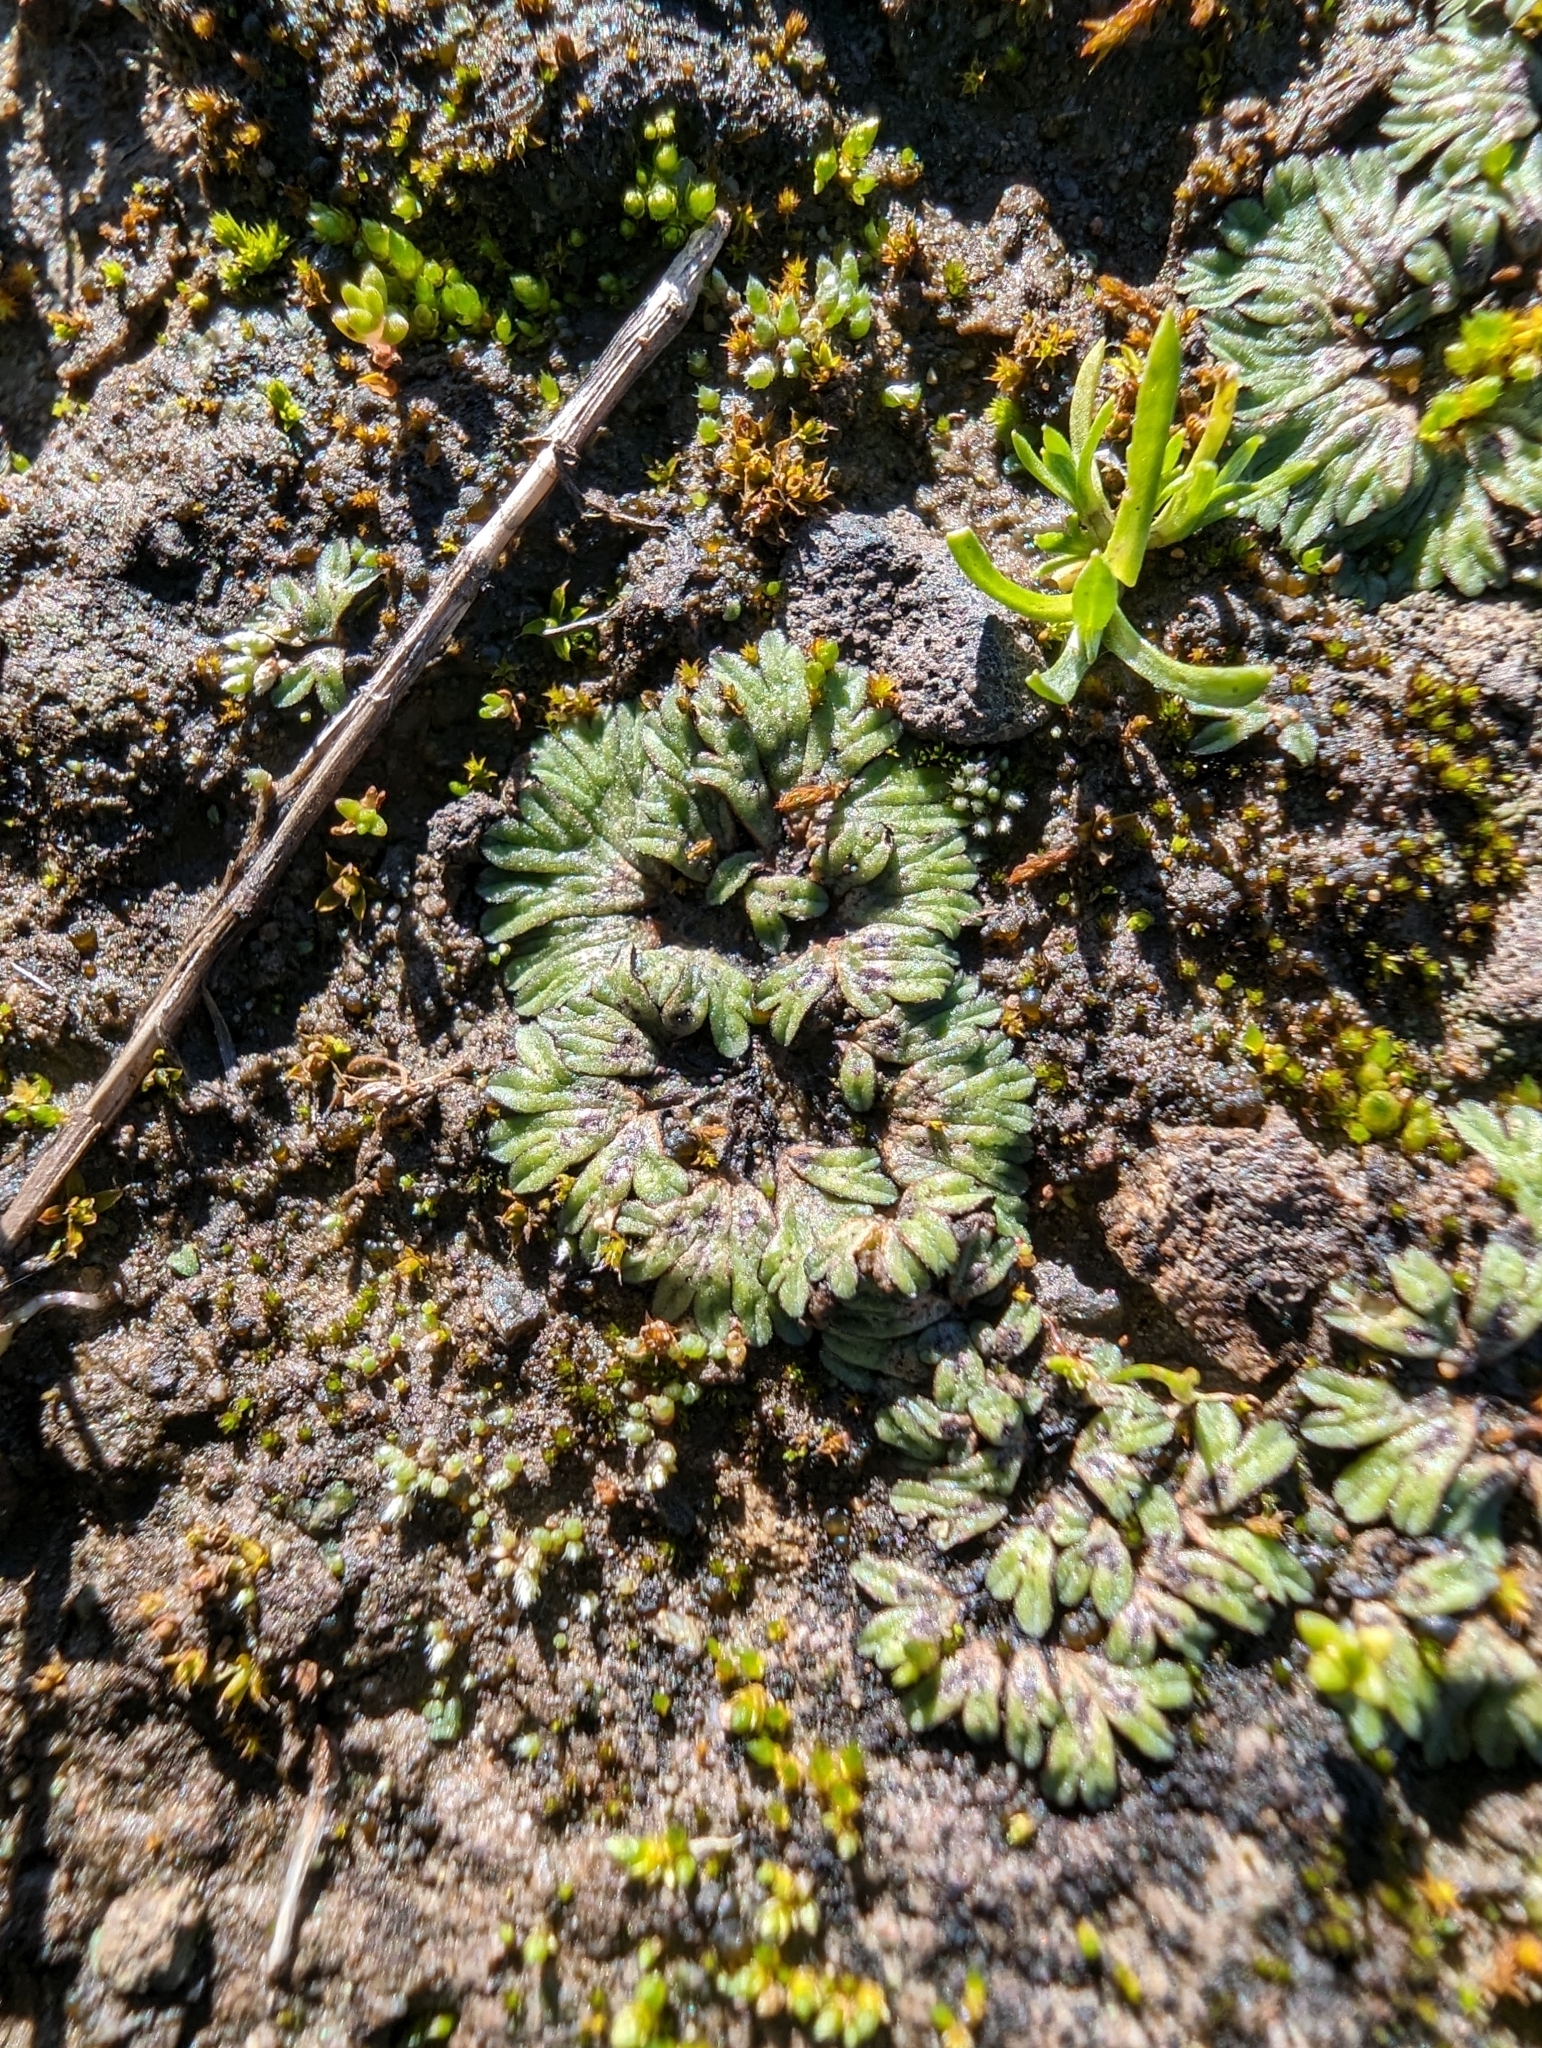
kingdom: Plantae
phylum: Marchantiophyta
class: Marchantiopsida
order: Marchantiales
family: Ricciaceae
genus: Riccia
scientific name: Riccia nigrella
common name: Black crystalwort
